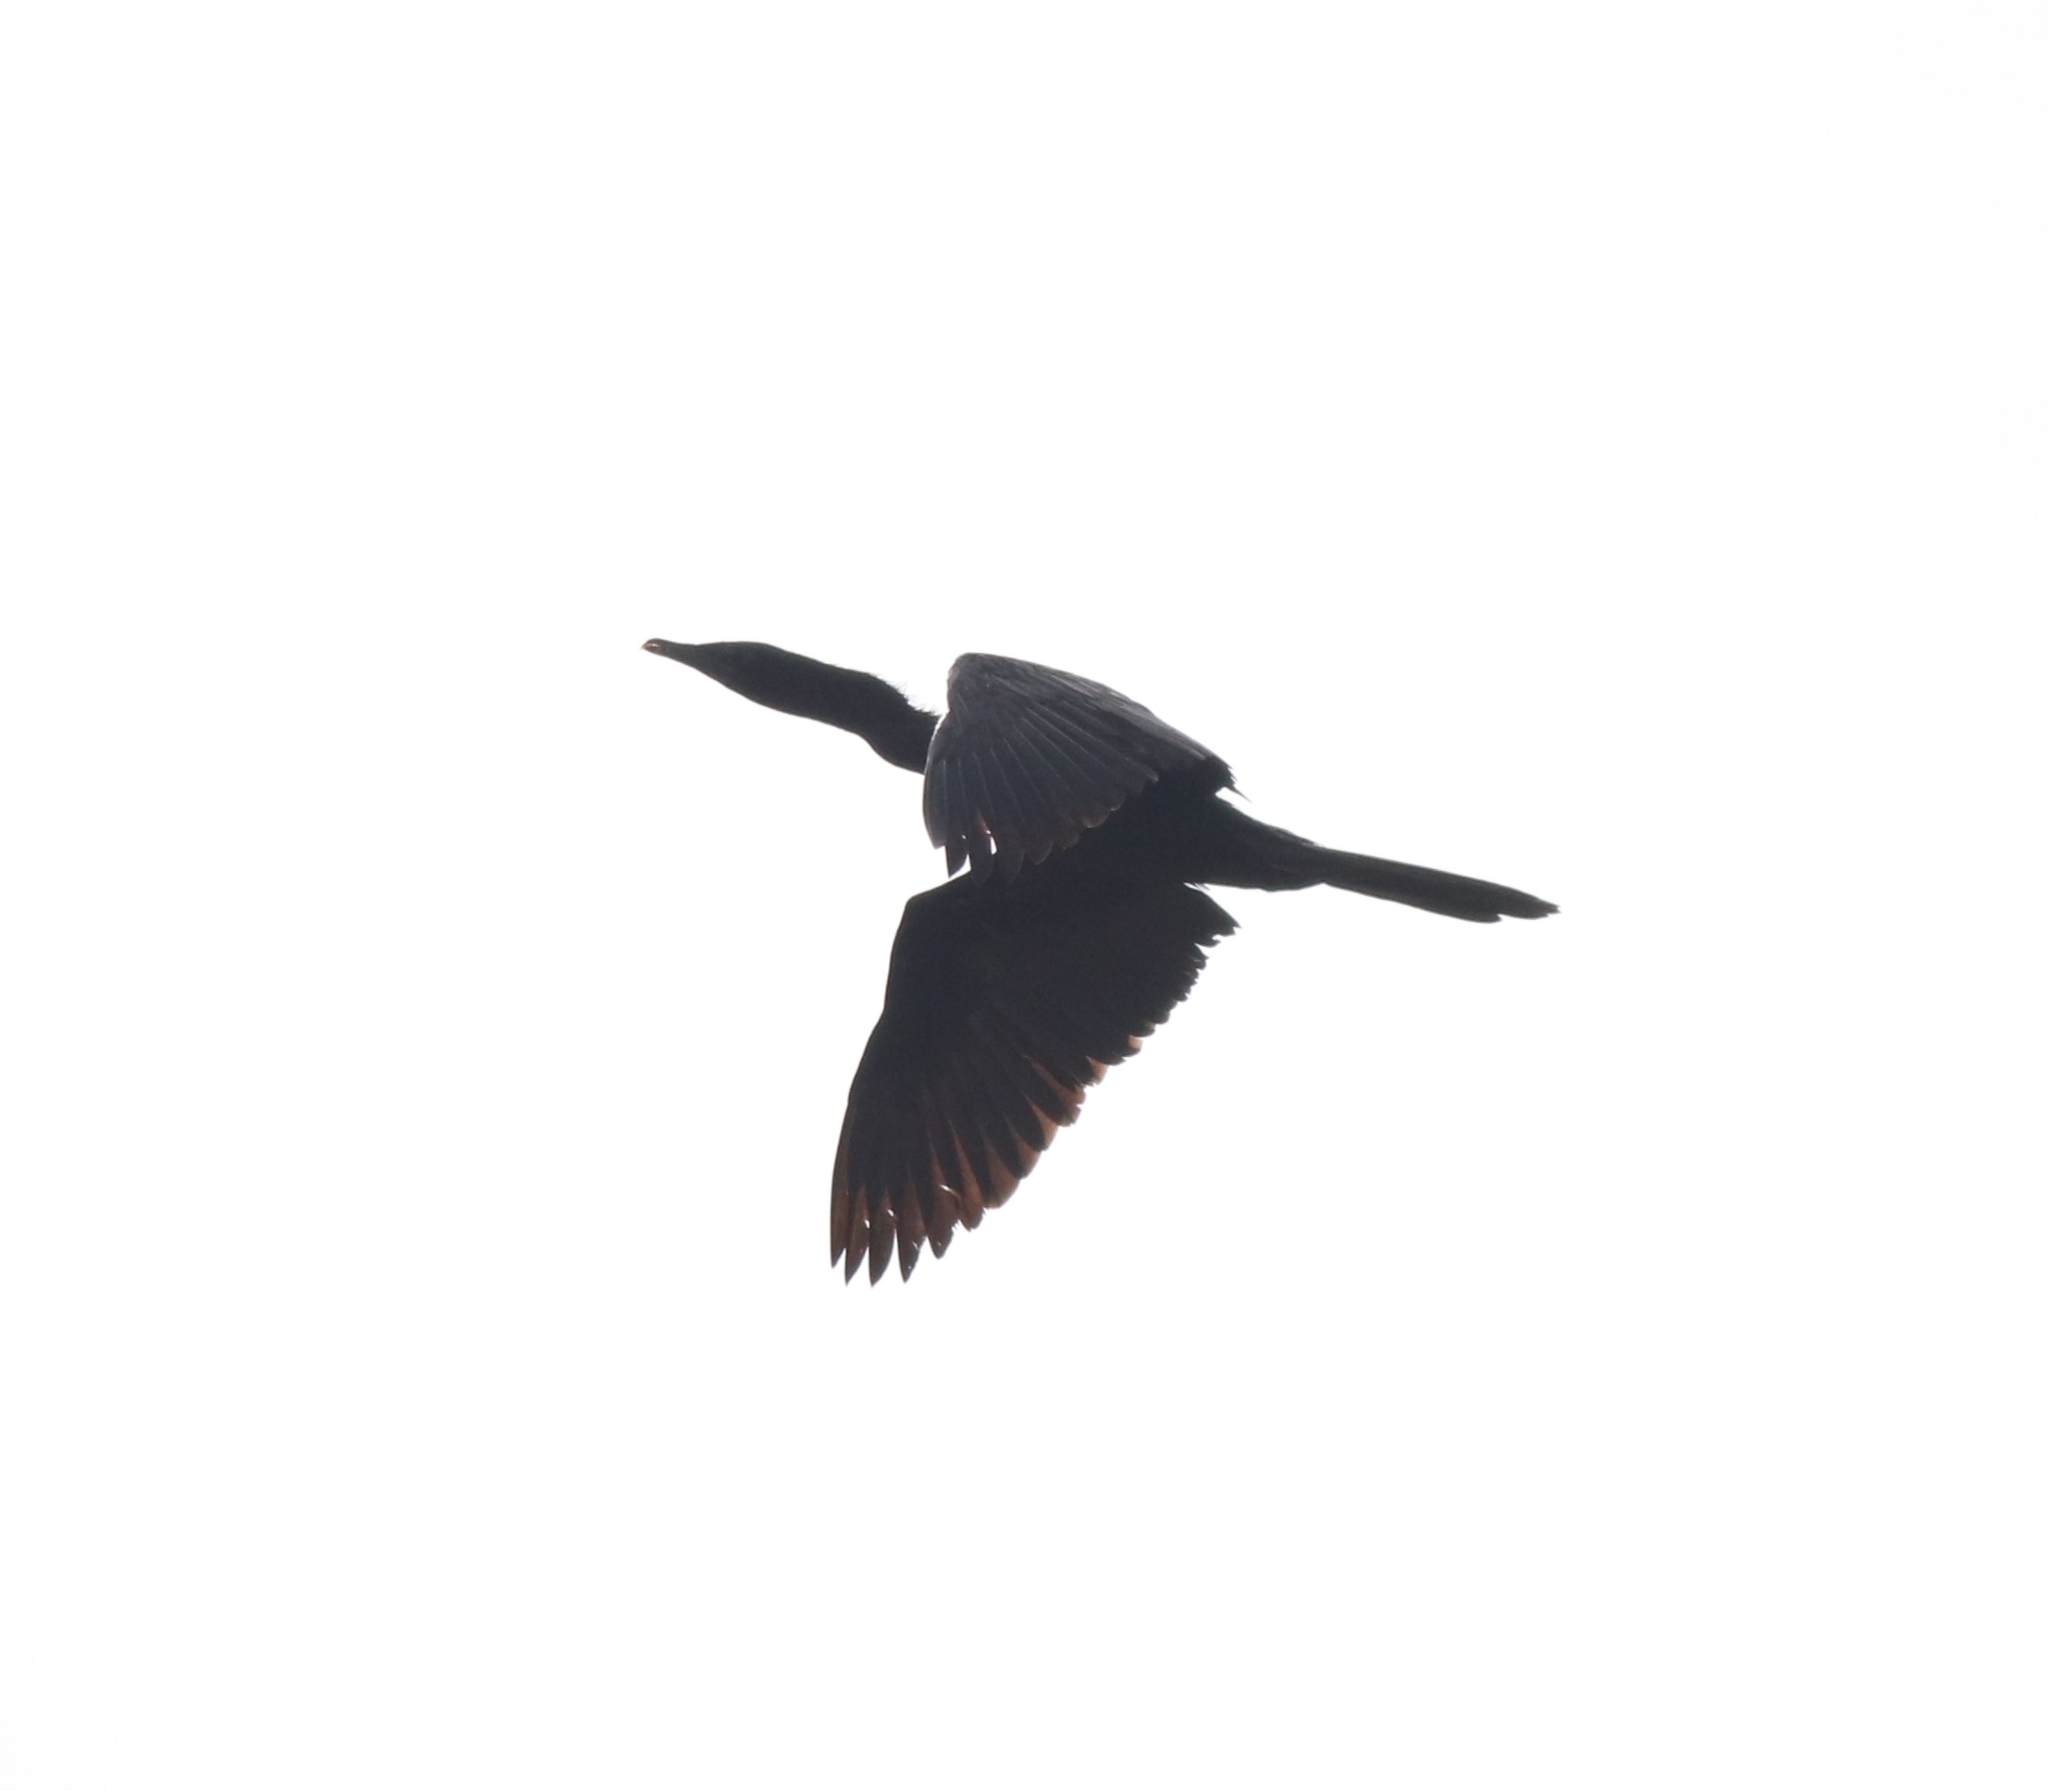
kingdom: Animalia
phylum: Chordata
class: Aves
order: Suliformes
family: Phalacrocoracidae
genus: Microcarbo
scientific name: Microcarbo niger
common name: Little cormorant
